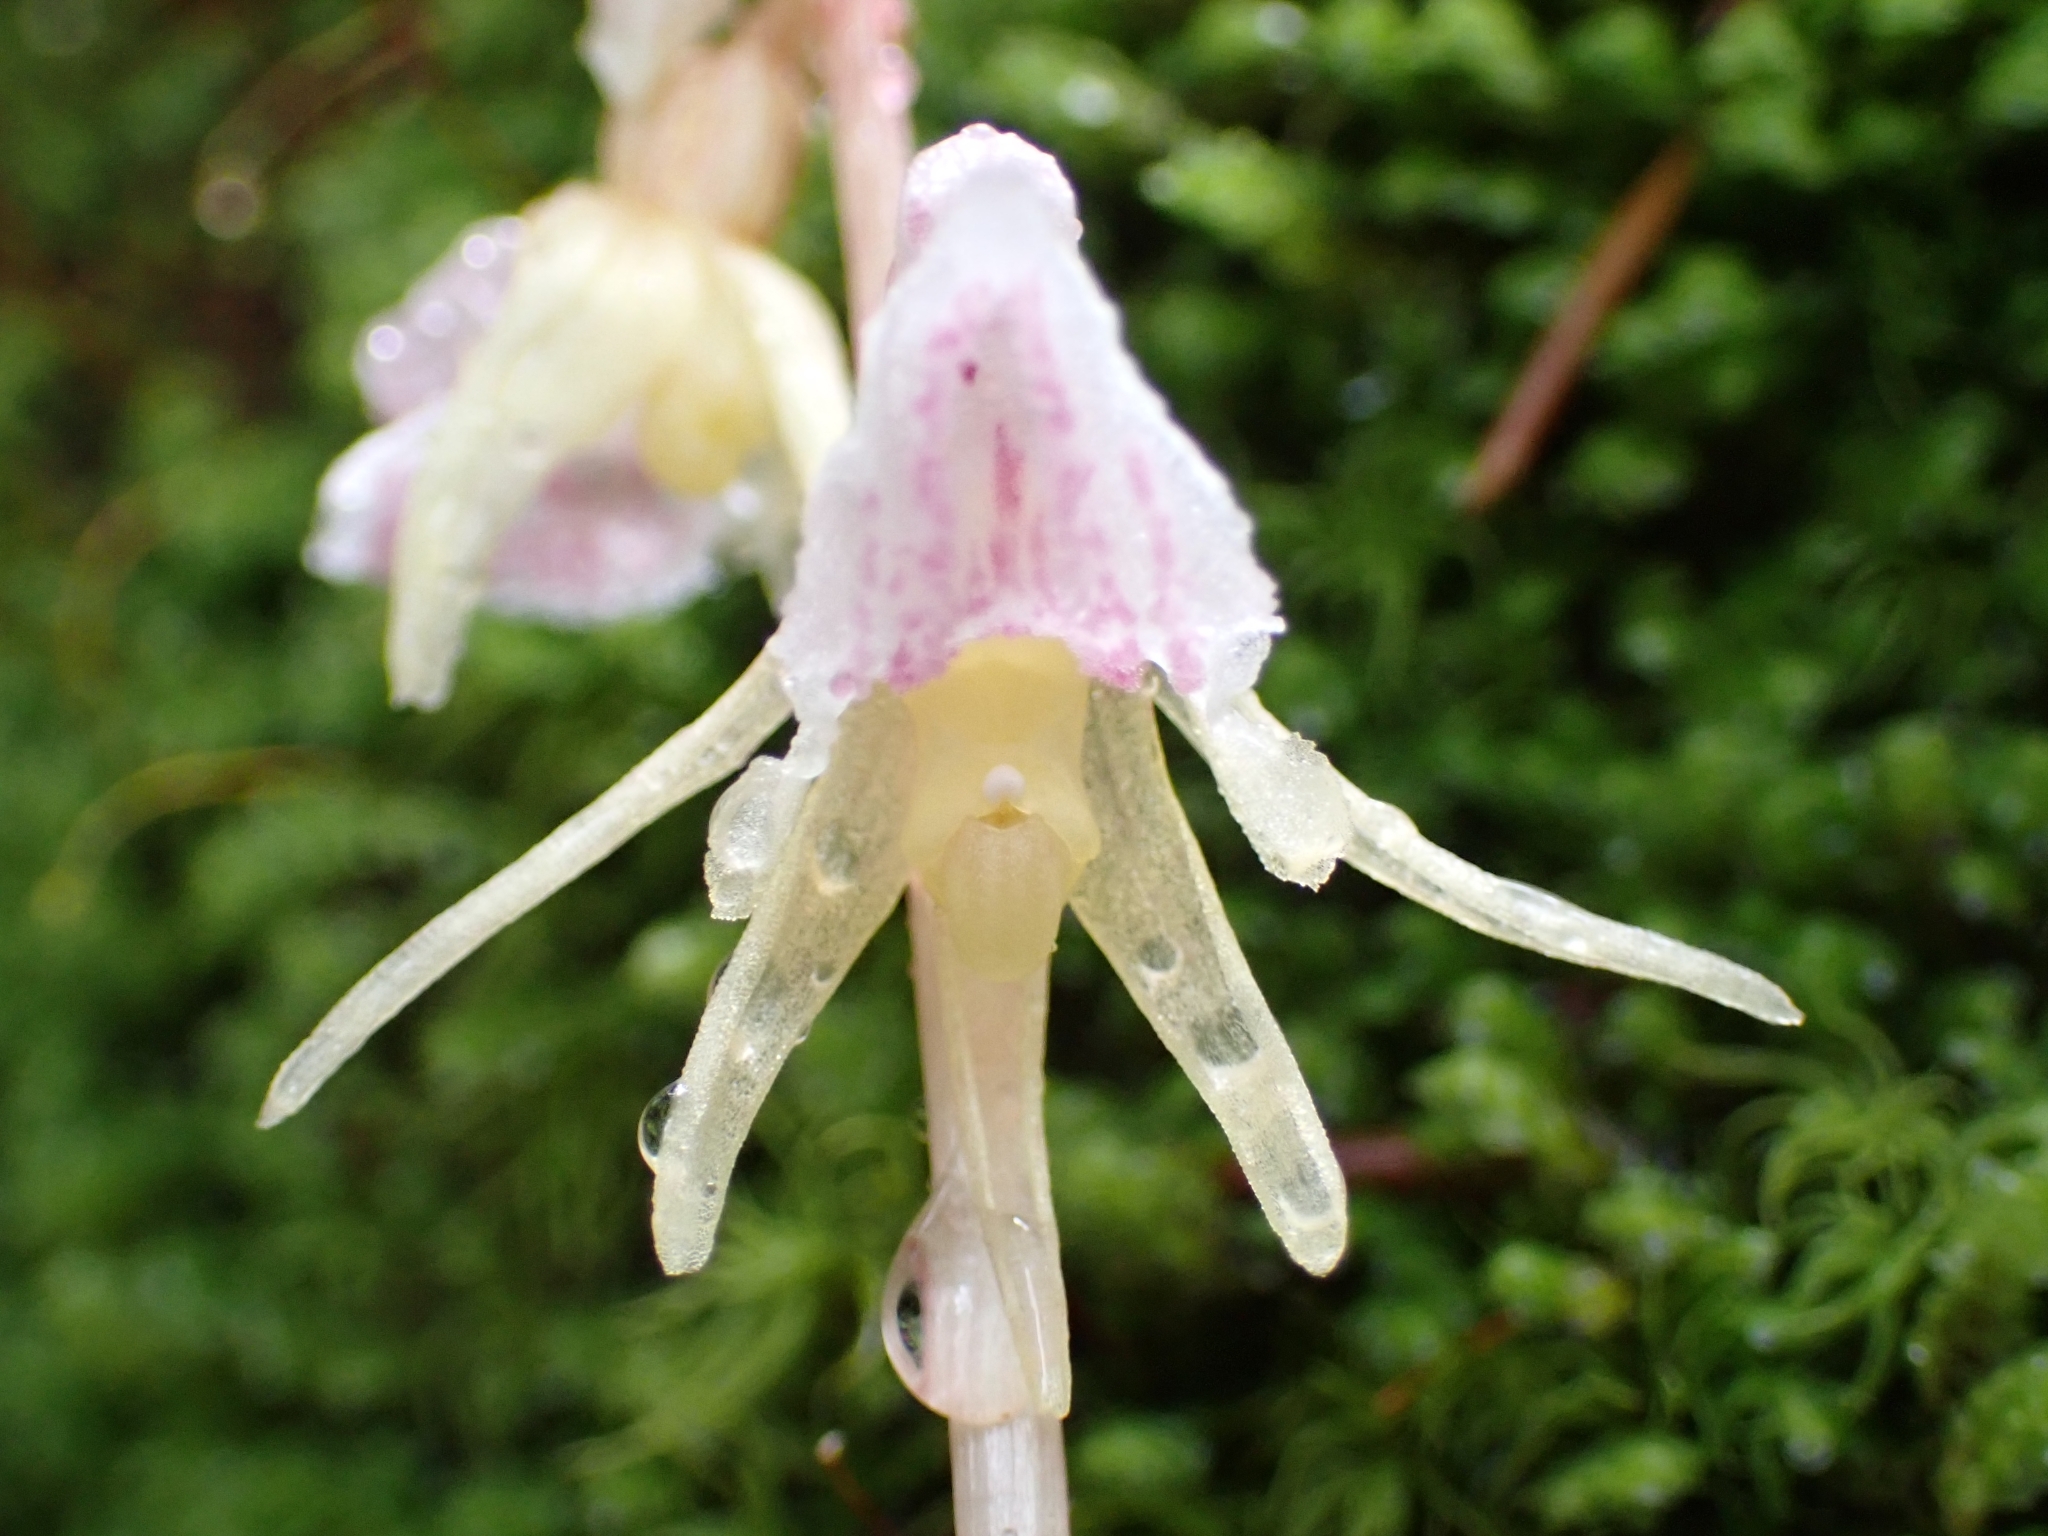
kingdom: Plantae
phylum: Tracheophyta
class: Liliopsida
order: Asparagales
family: Orchidaceae
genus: Epipogium
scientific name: Epipogium aphyllum
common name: Ghost orchid
